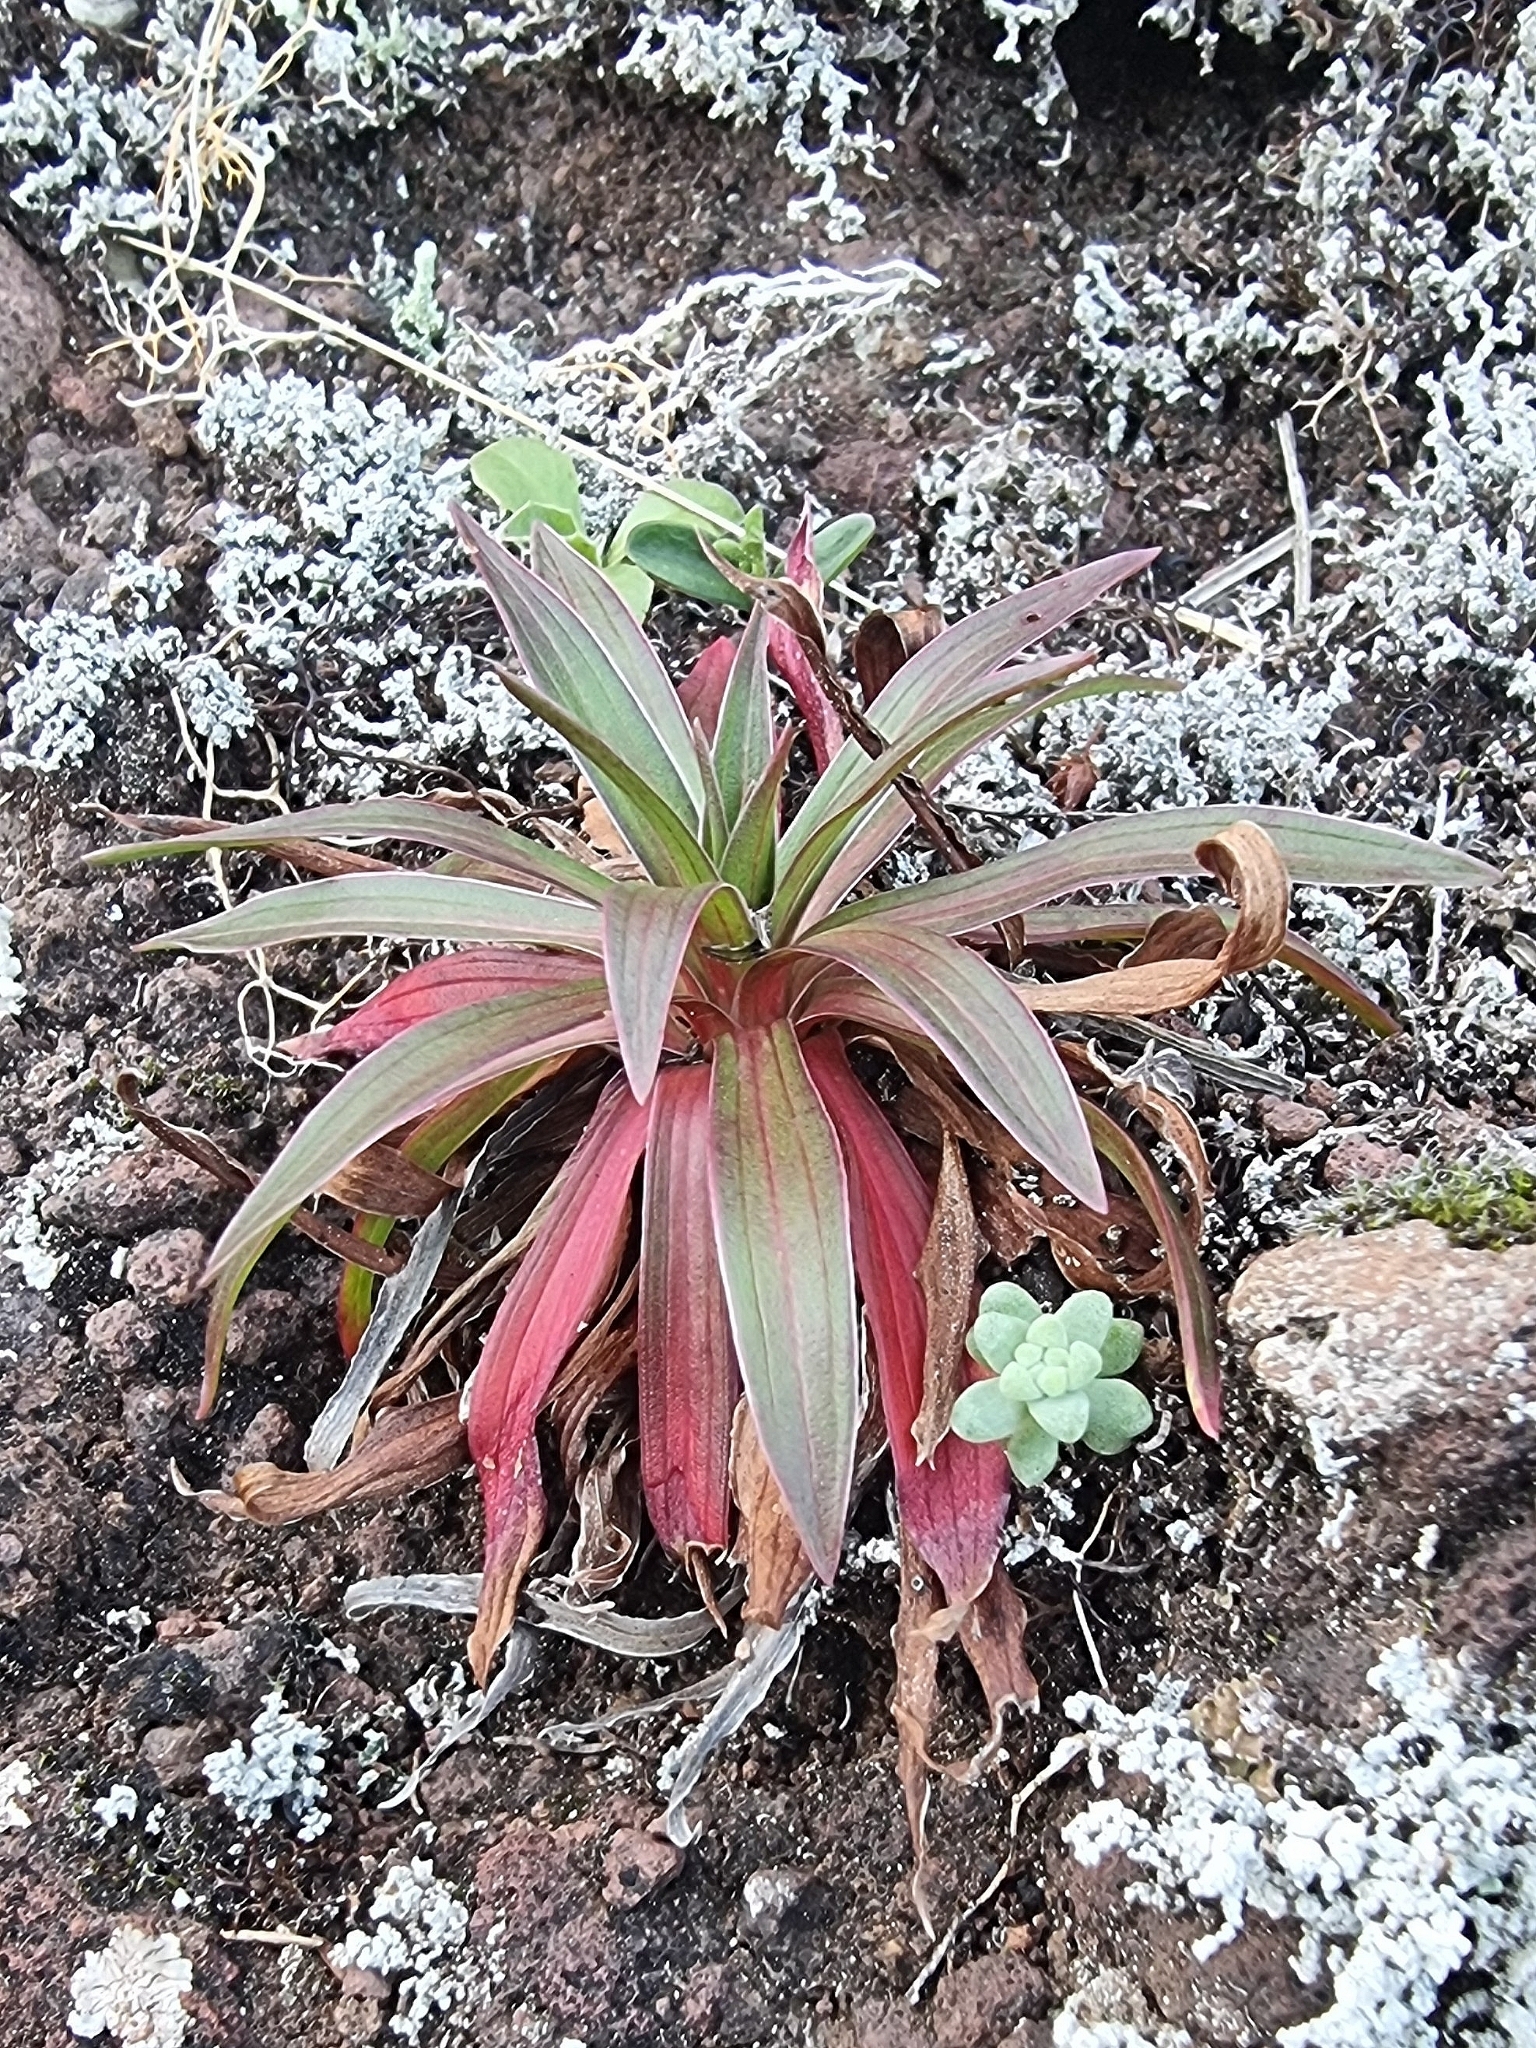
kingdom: Plantae
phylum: Tracheophyta
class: Magnoliopsida
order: Caryophyllales
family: Plumbaginaceae
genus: Armeria
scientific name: Armeria maderensis
